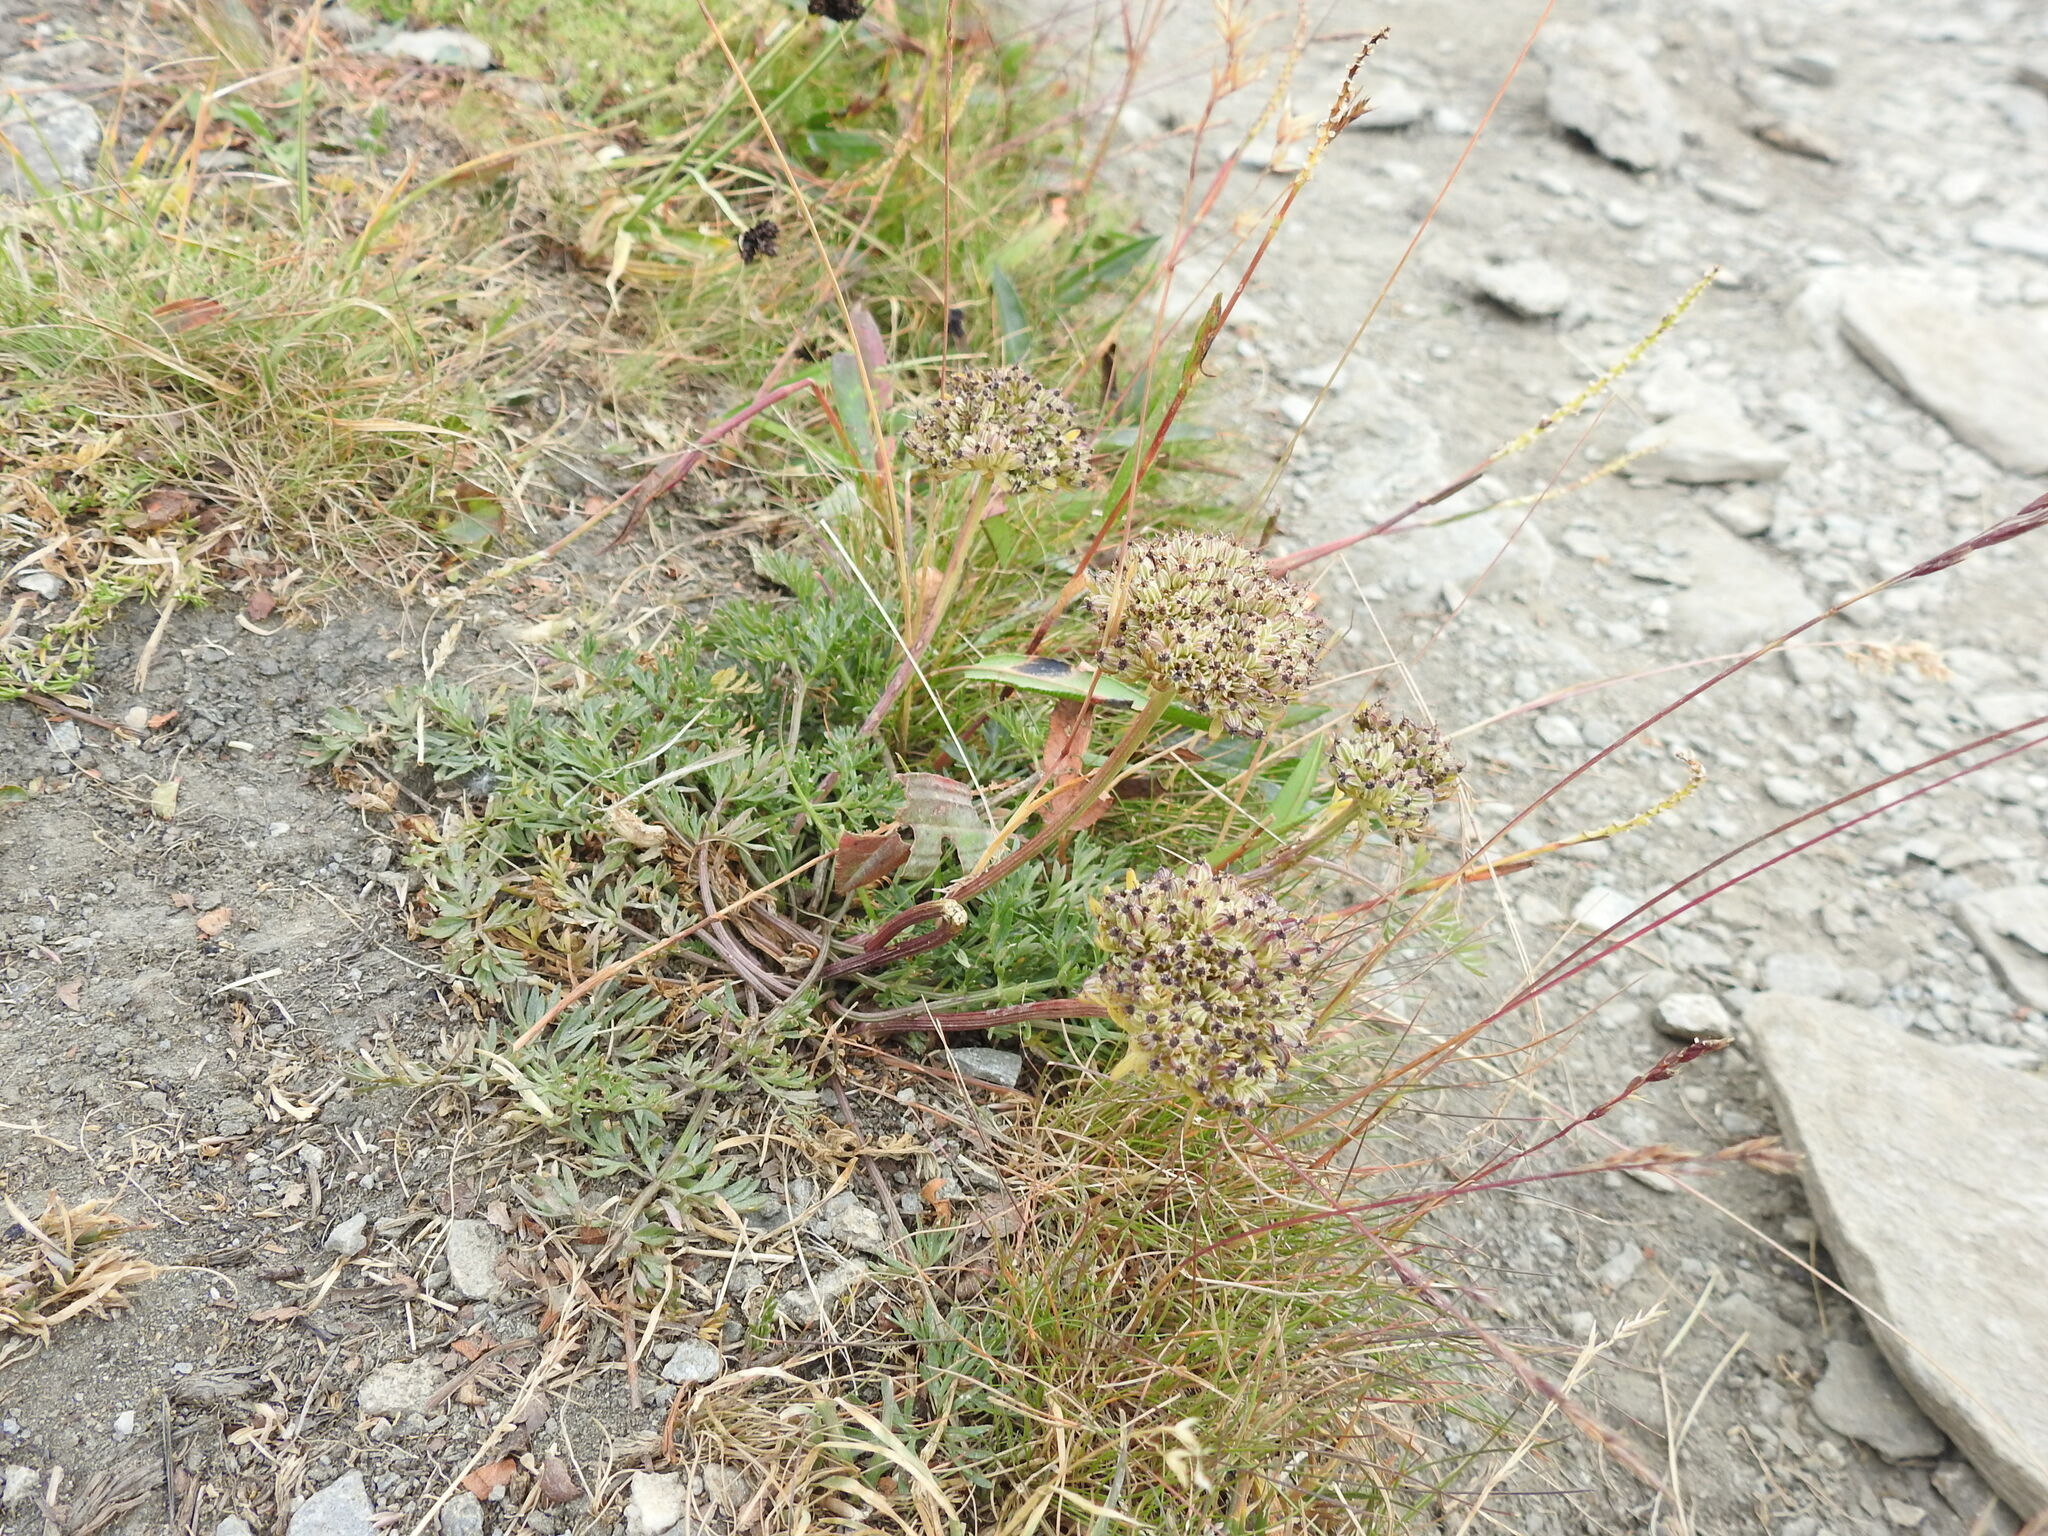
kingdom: Plantae
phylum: Tracheophyta
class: Magnoliopsida
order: Apiales
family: Apiaceae
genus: Pachypleurum
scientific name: Pachypleurum mutellinoides
